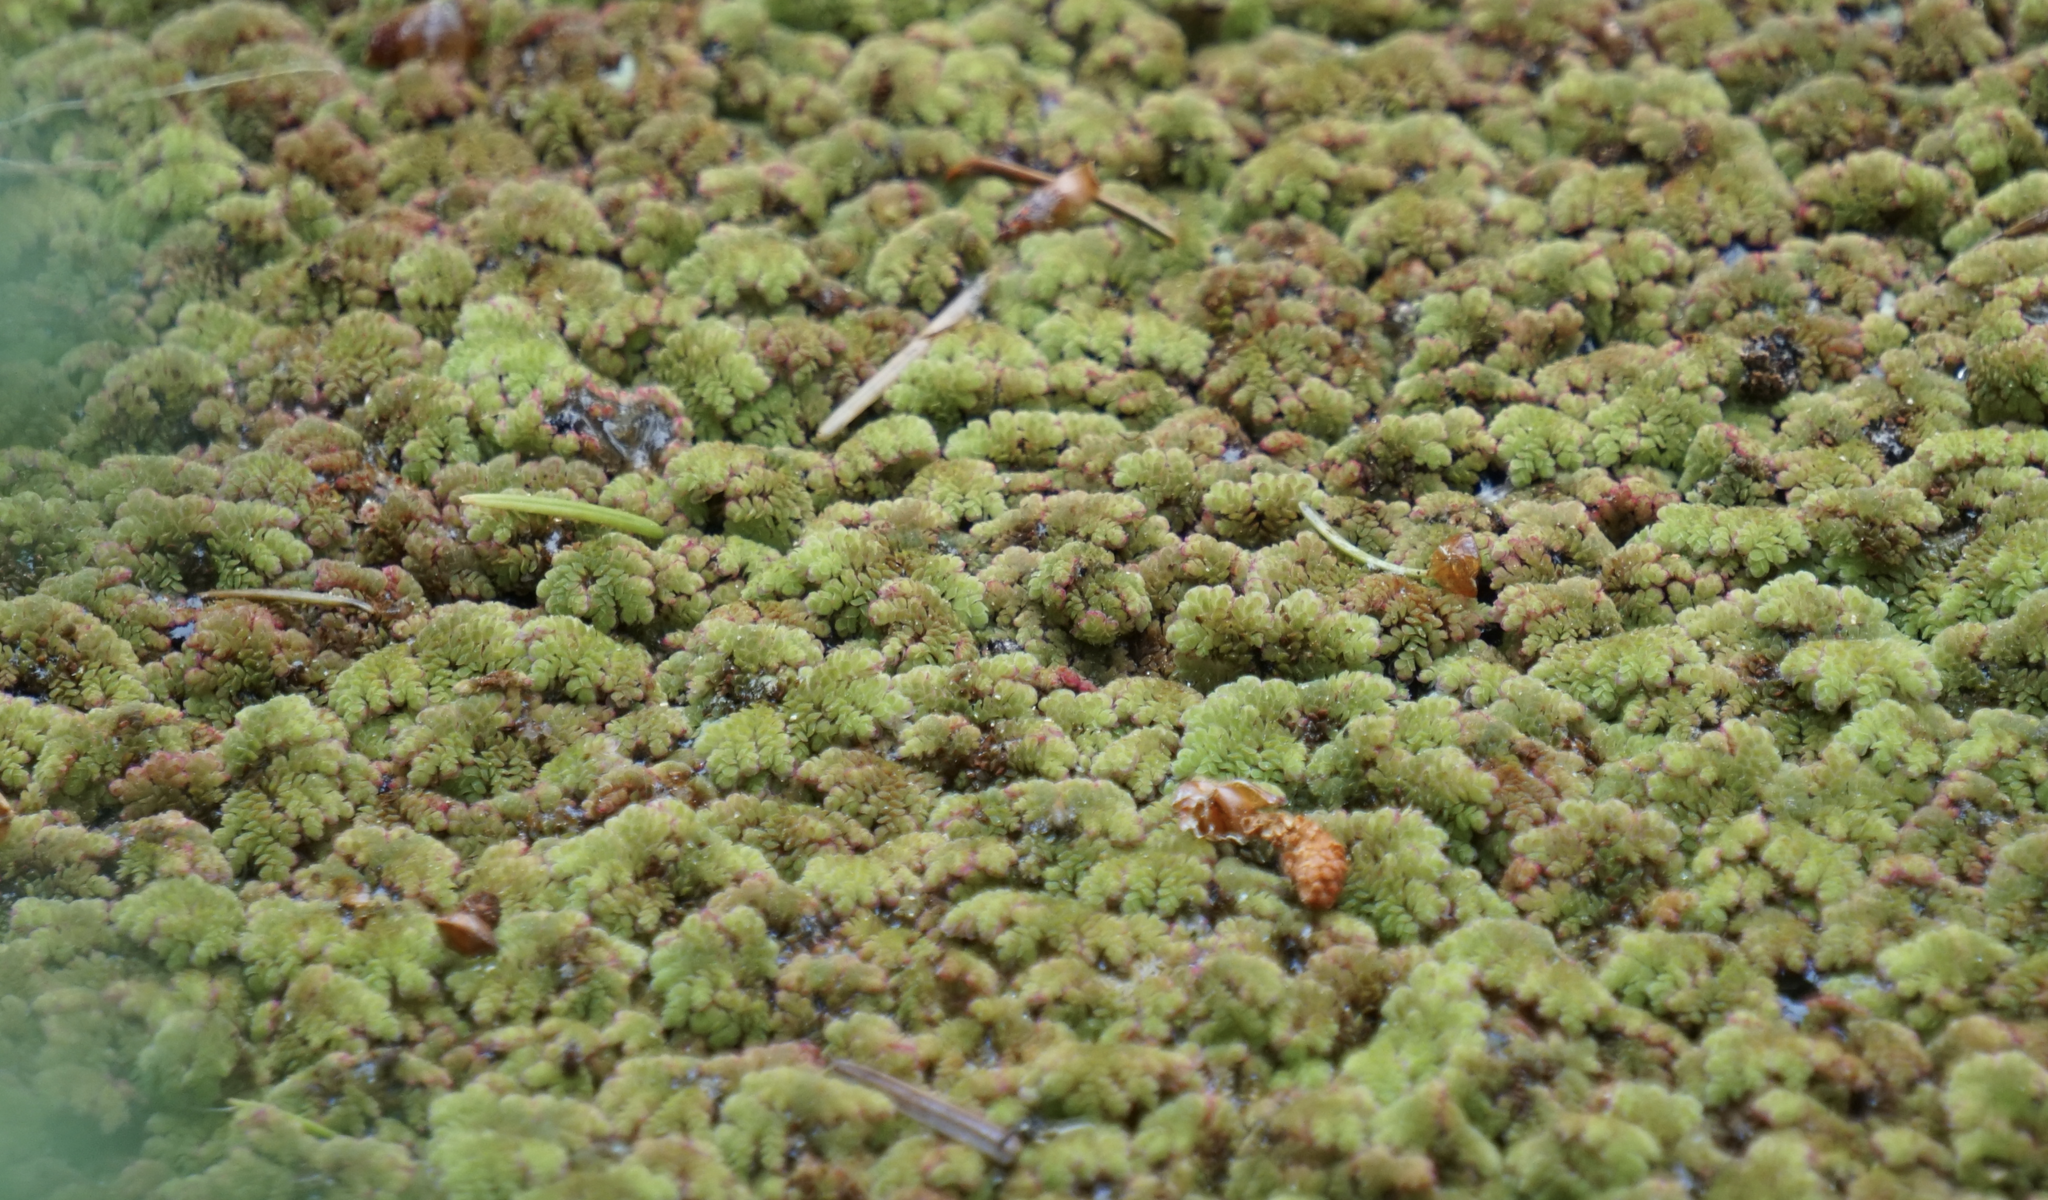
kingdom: Plantae
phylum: Tracheophyta
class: Polypodiopsida
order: Salviniales
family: Salviniaceae
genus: Azolla
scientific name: Azolla filiculoides
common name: Water fern
